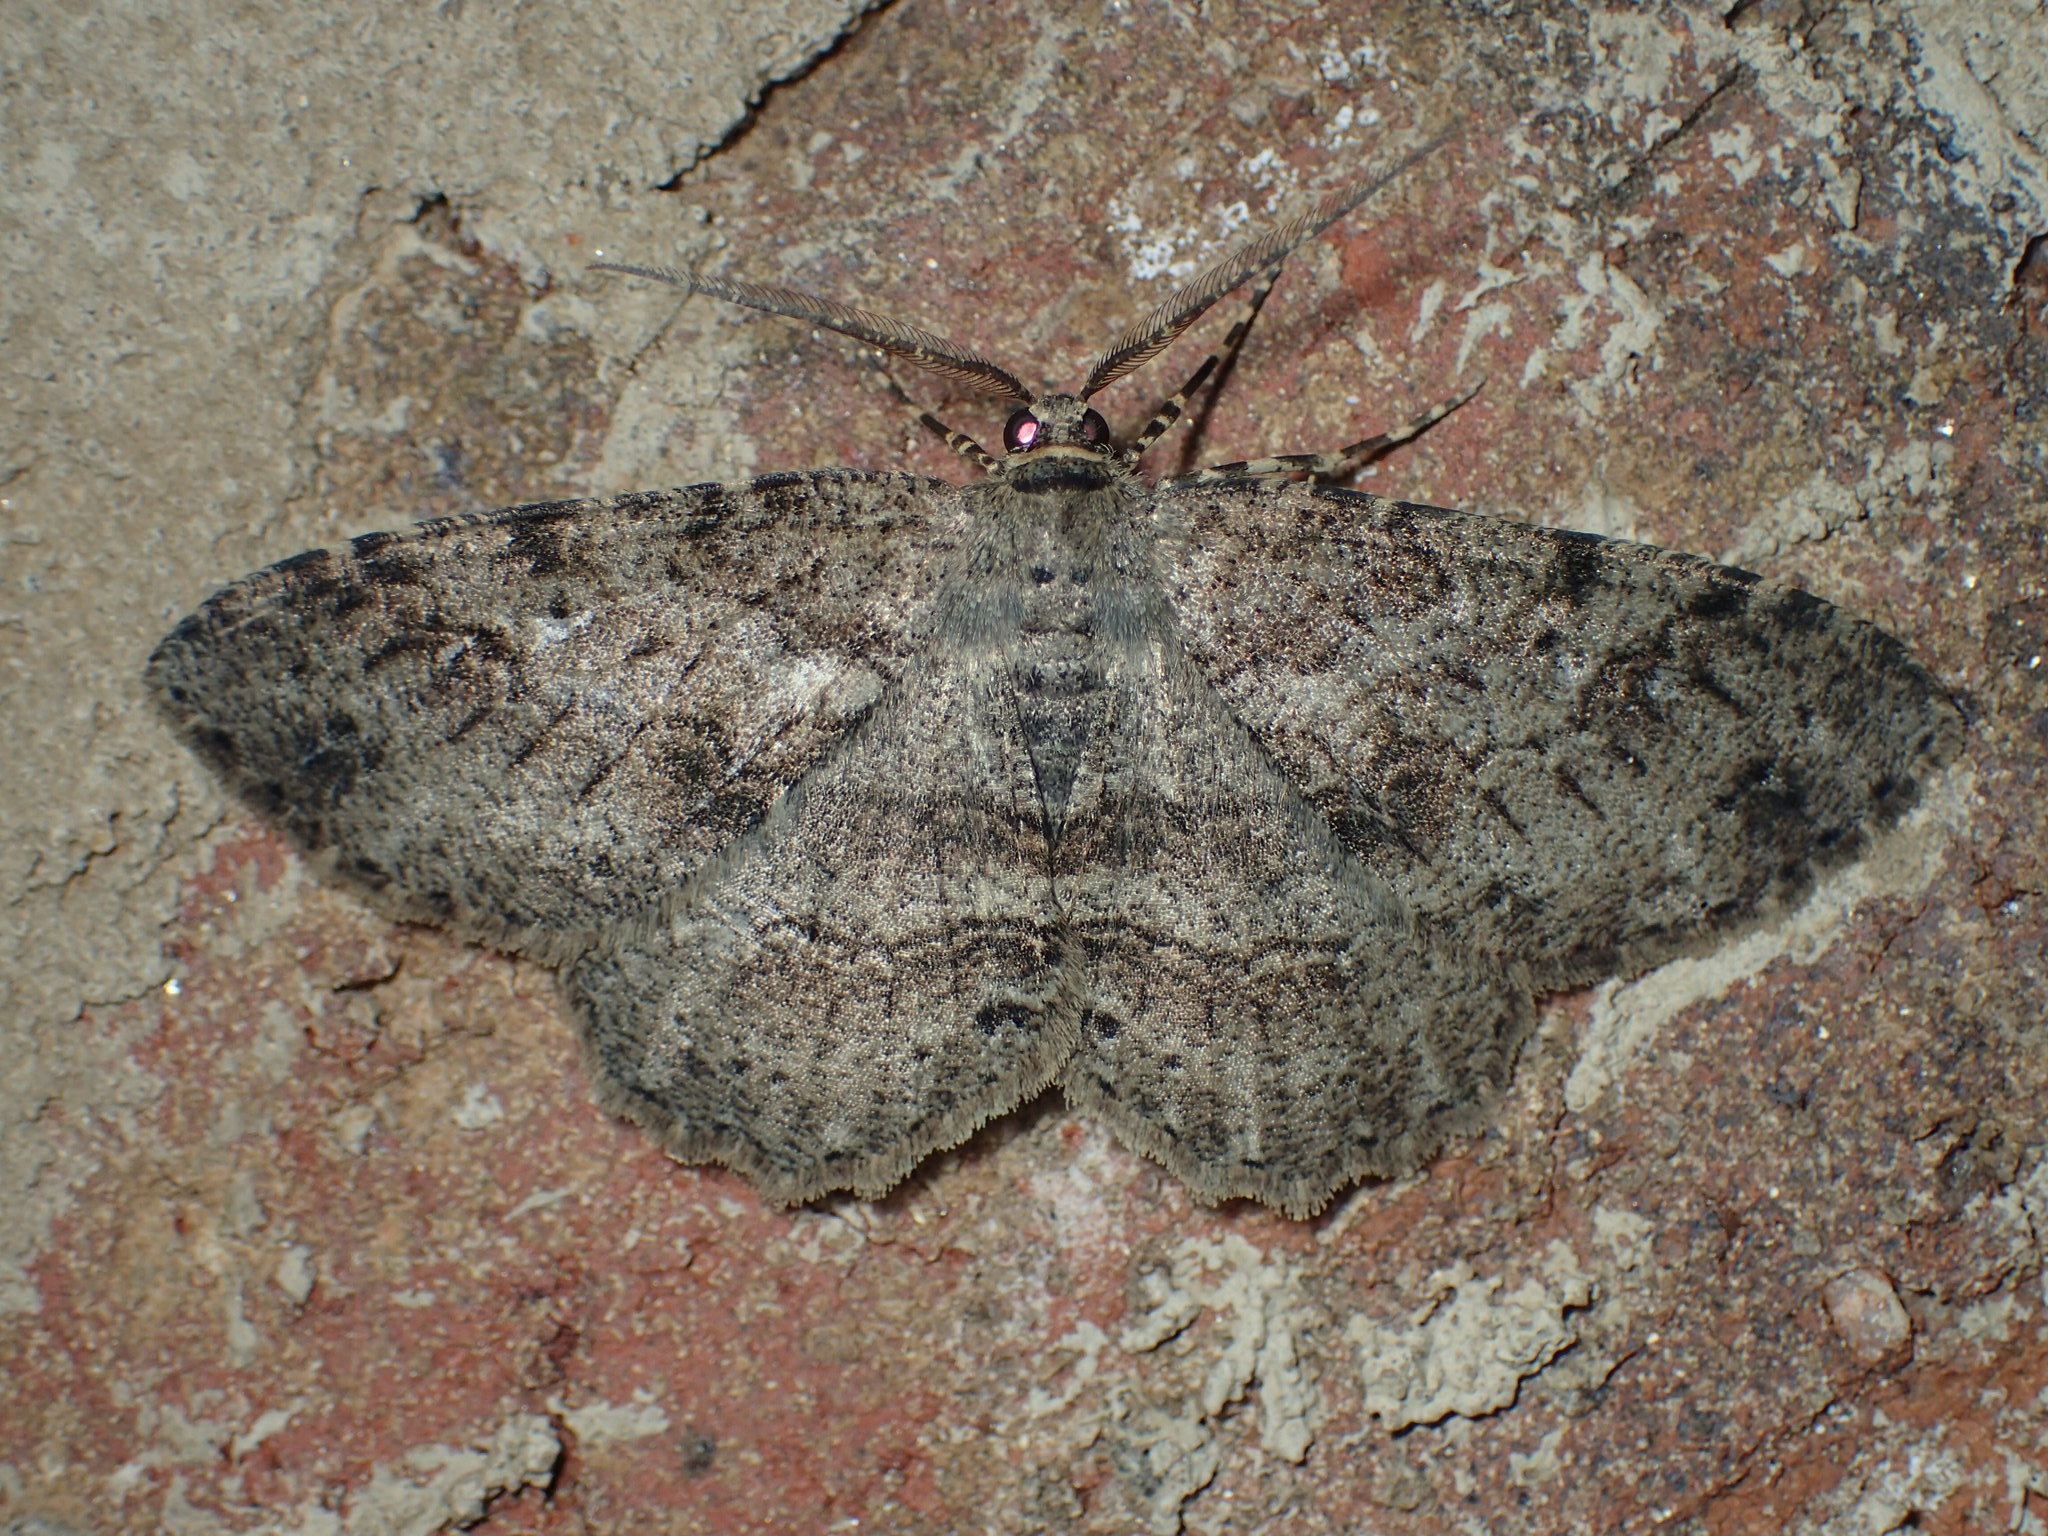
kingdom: Animalia
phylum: Arthropoda
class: Insecta
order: Lepidoptera
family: Geometridae
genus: Melanolophia
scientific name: Melanolophia canadaria
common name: Canadian melanolophia
